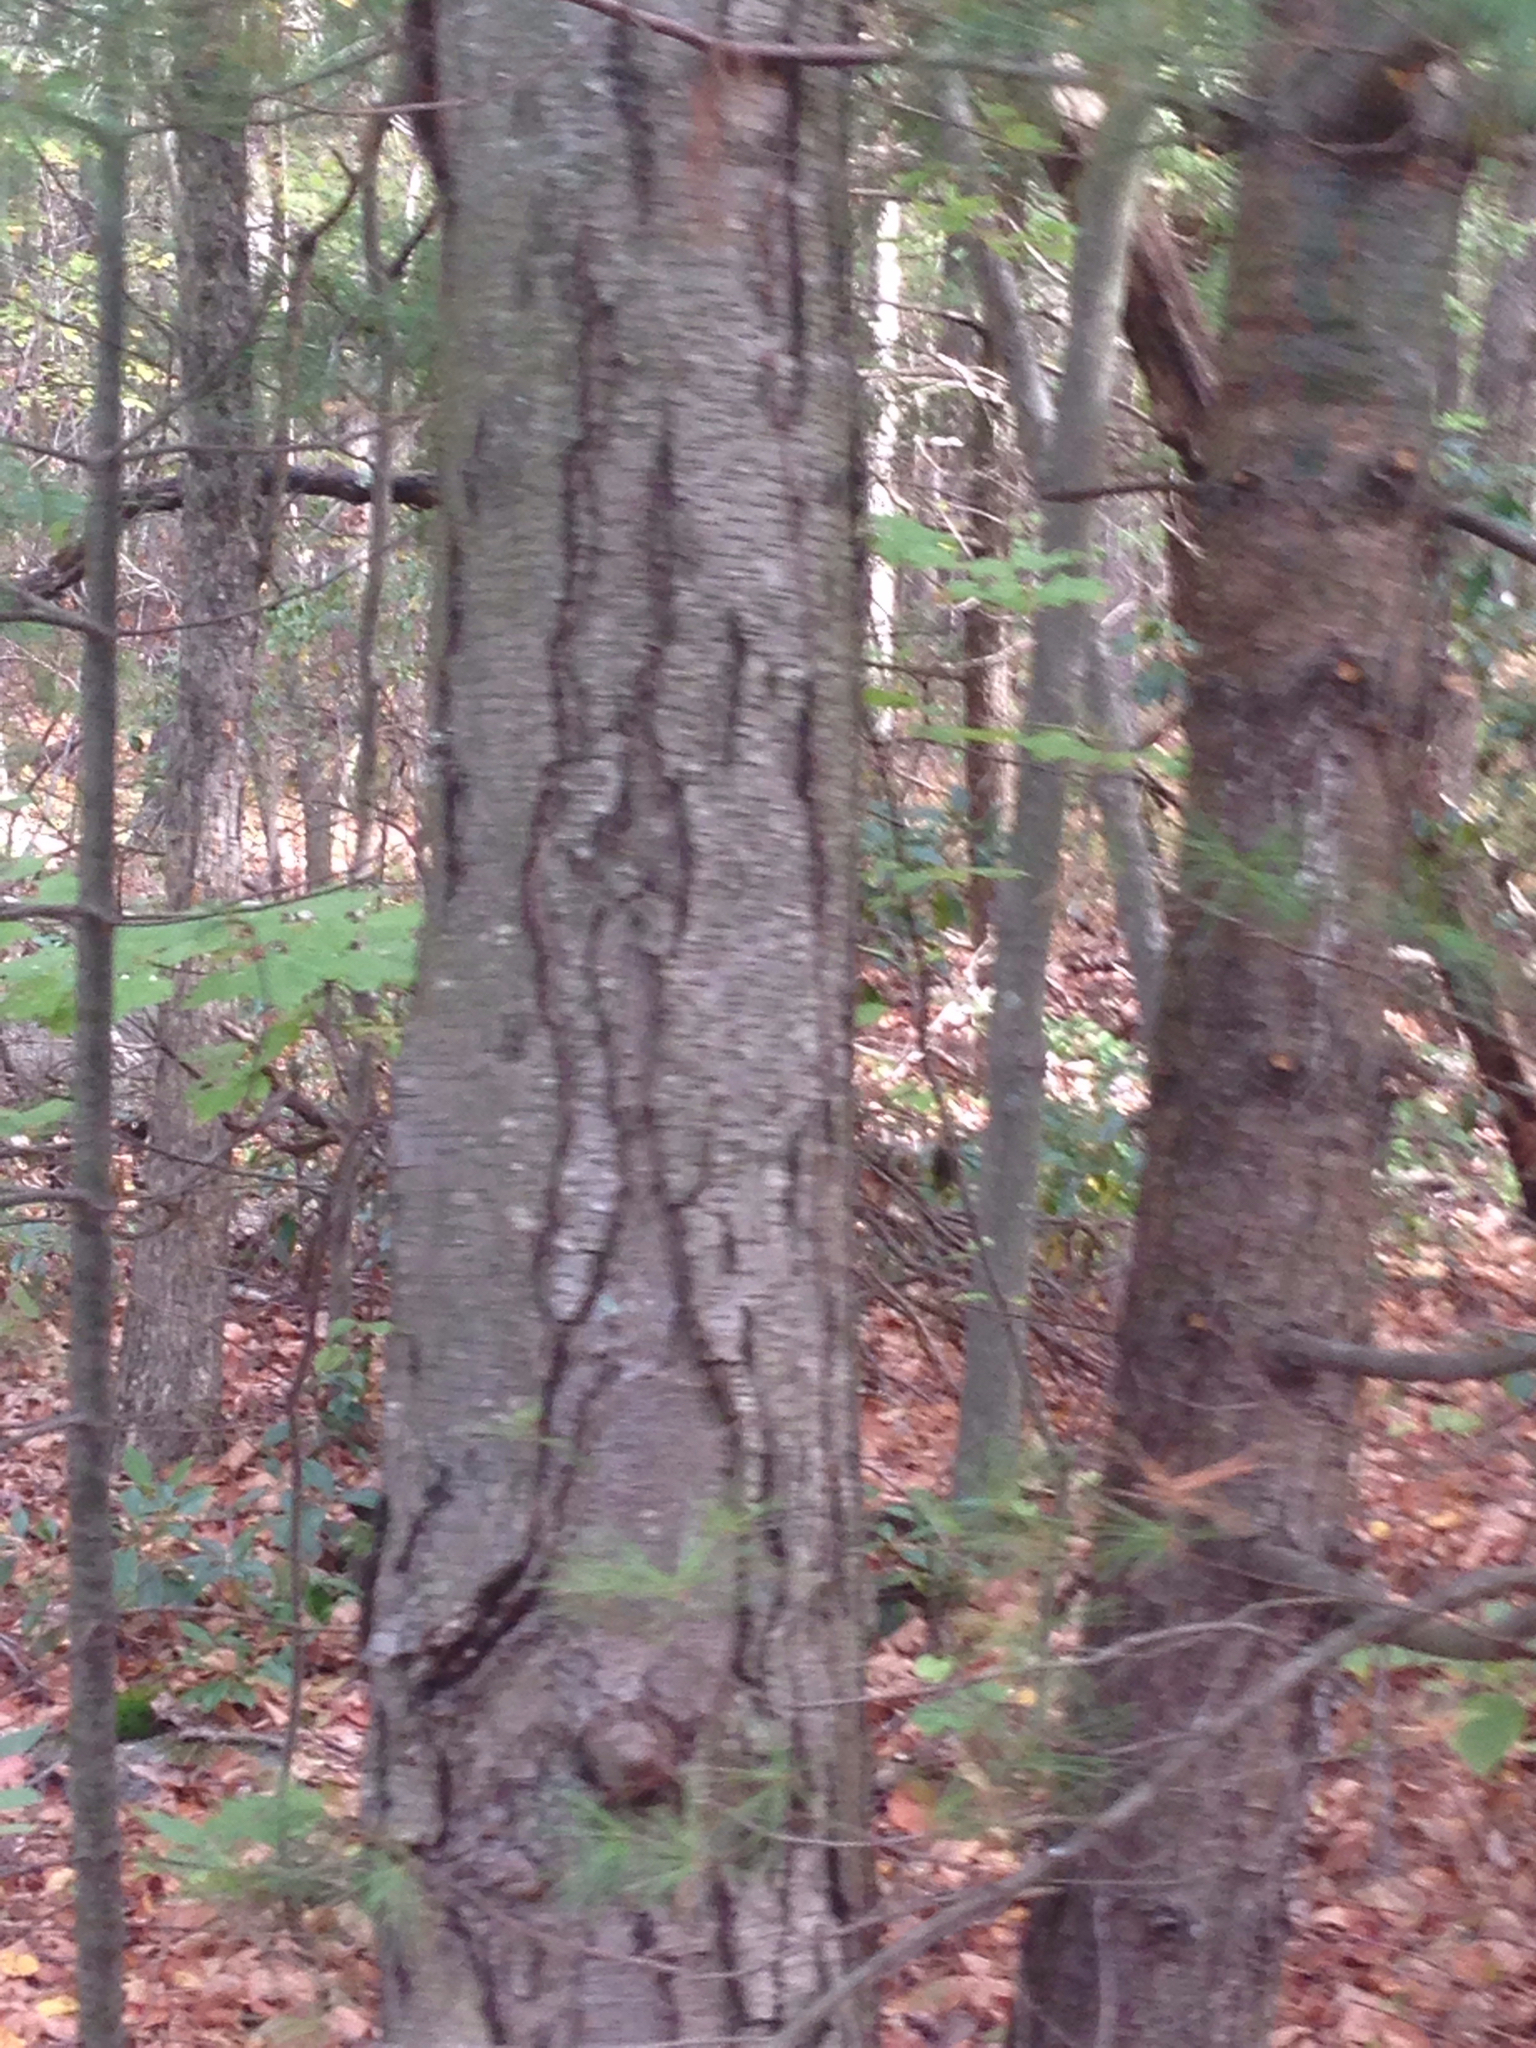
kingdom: Plantae
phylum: Tracheophyta
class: Magnoliopsida
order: Fagales
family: Betulaceae
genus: Betula
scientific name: Betula lenta
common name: Black birch
